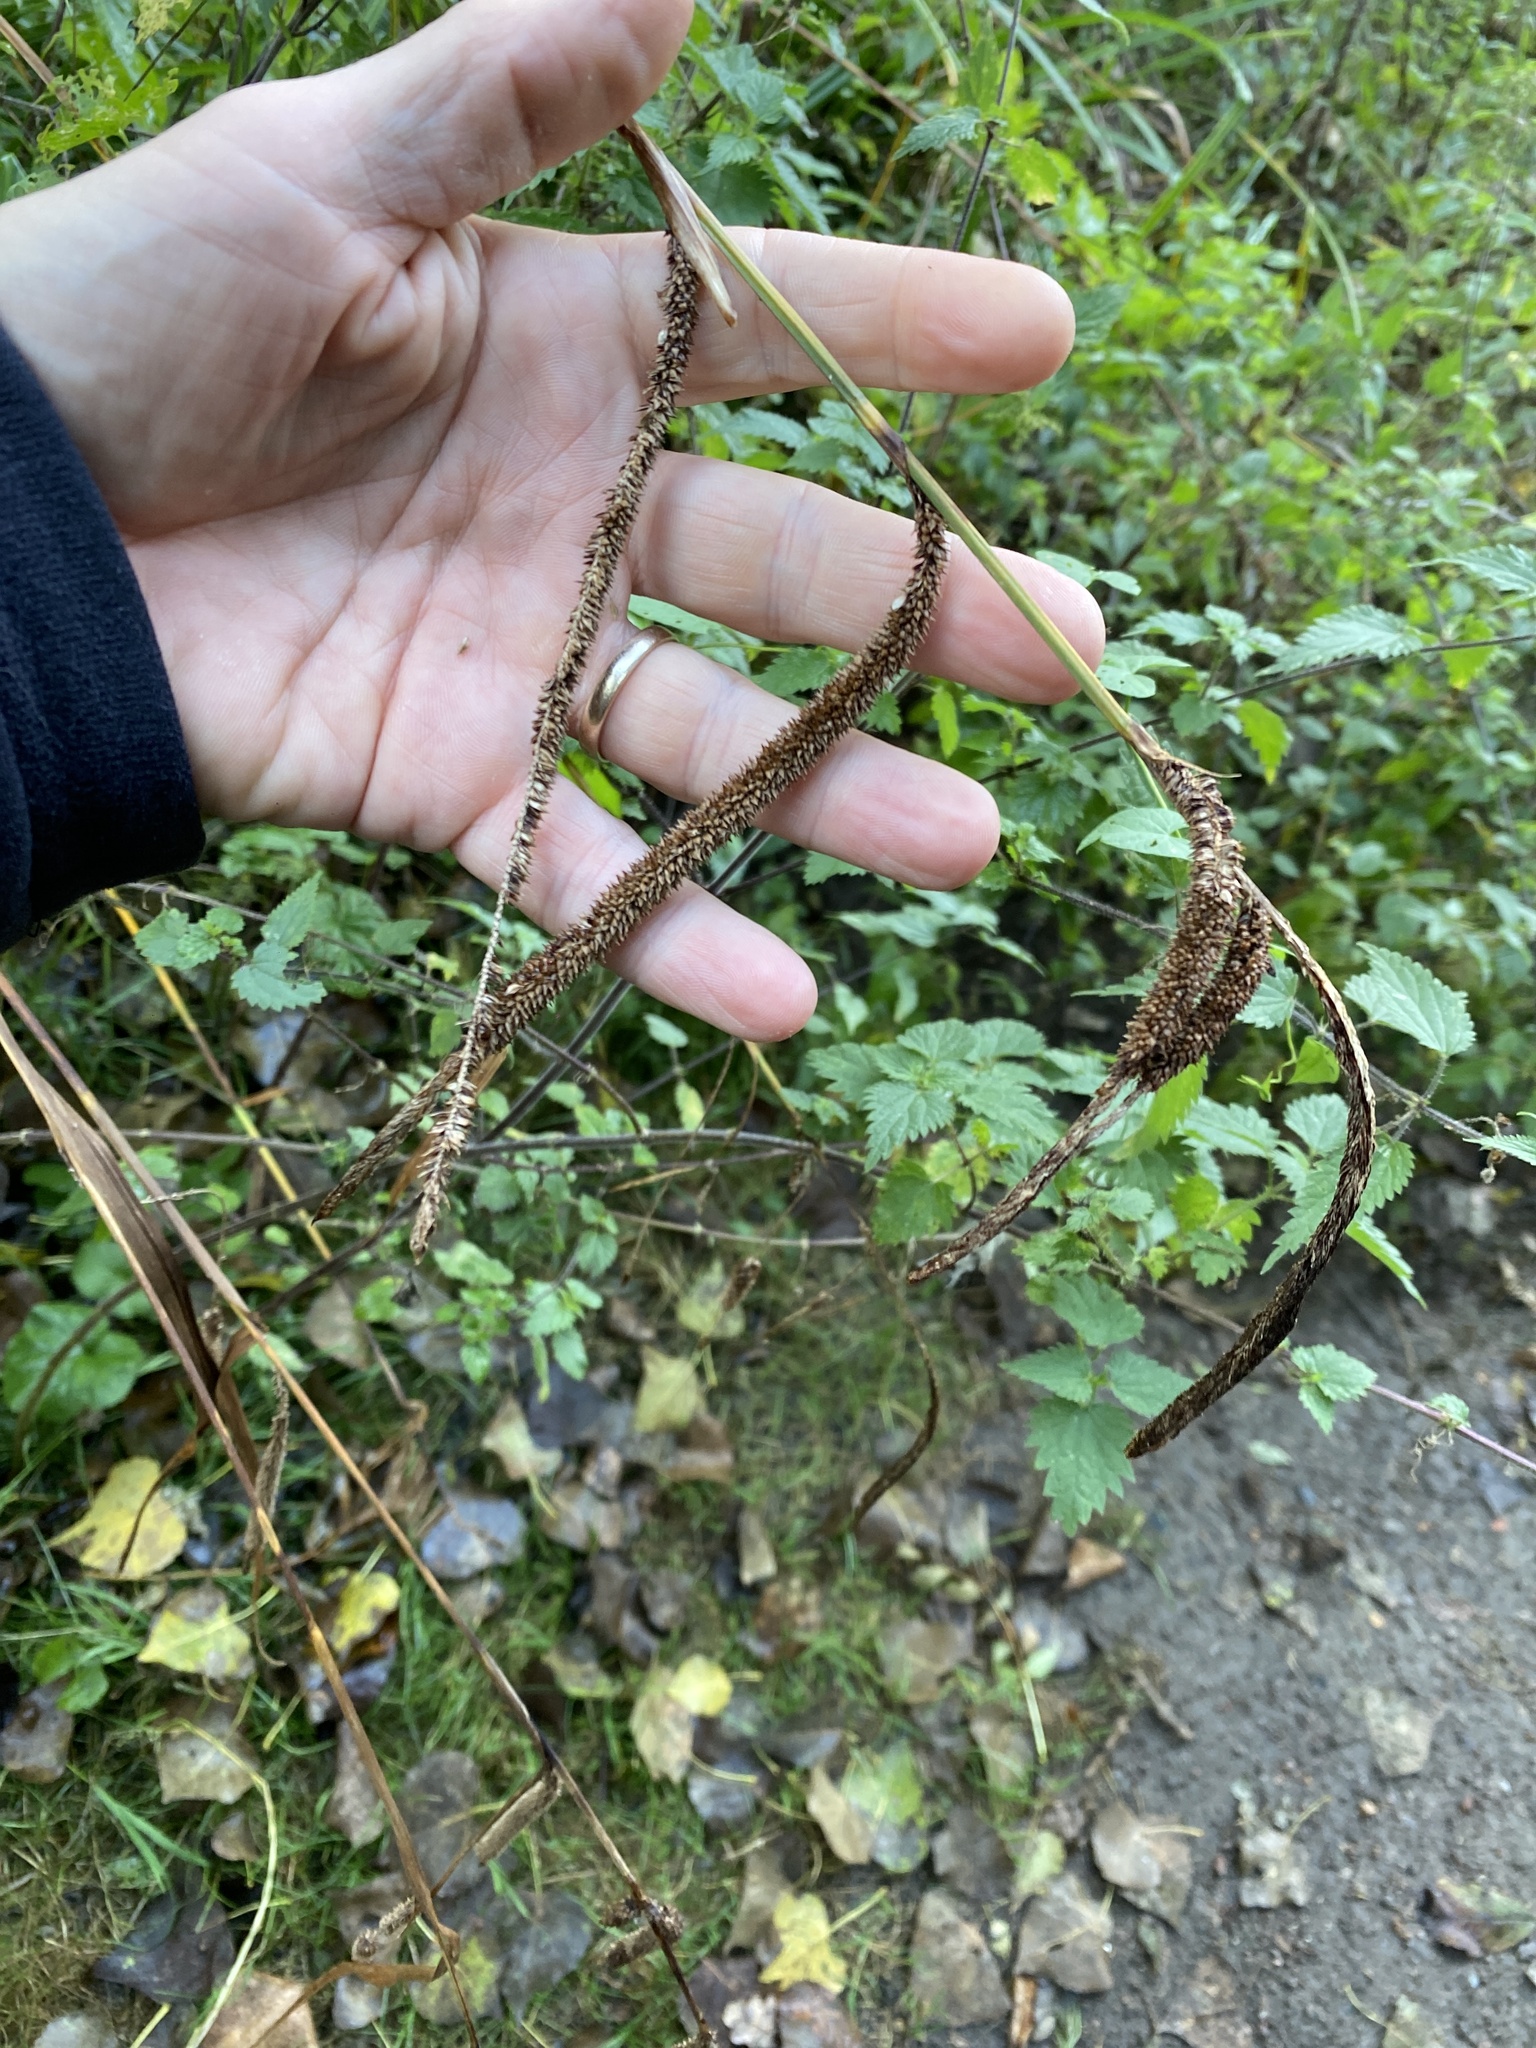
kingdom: Plantae
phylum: Tracheophyta
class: Liliopsida
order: Poales
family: Cyperaceae
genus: Carex
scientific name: Carex pendula
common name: Pendulous sedge
